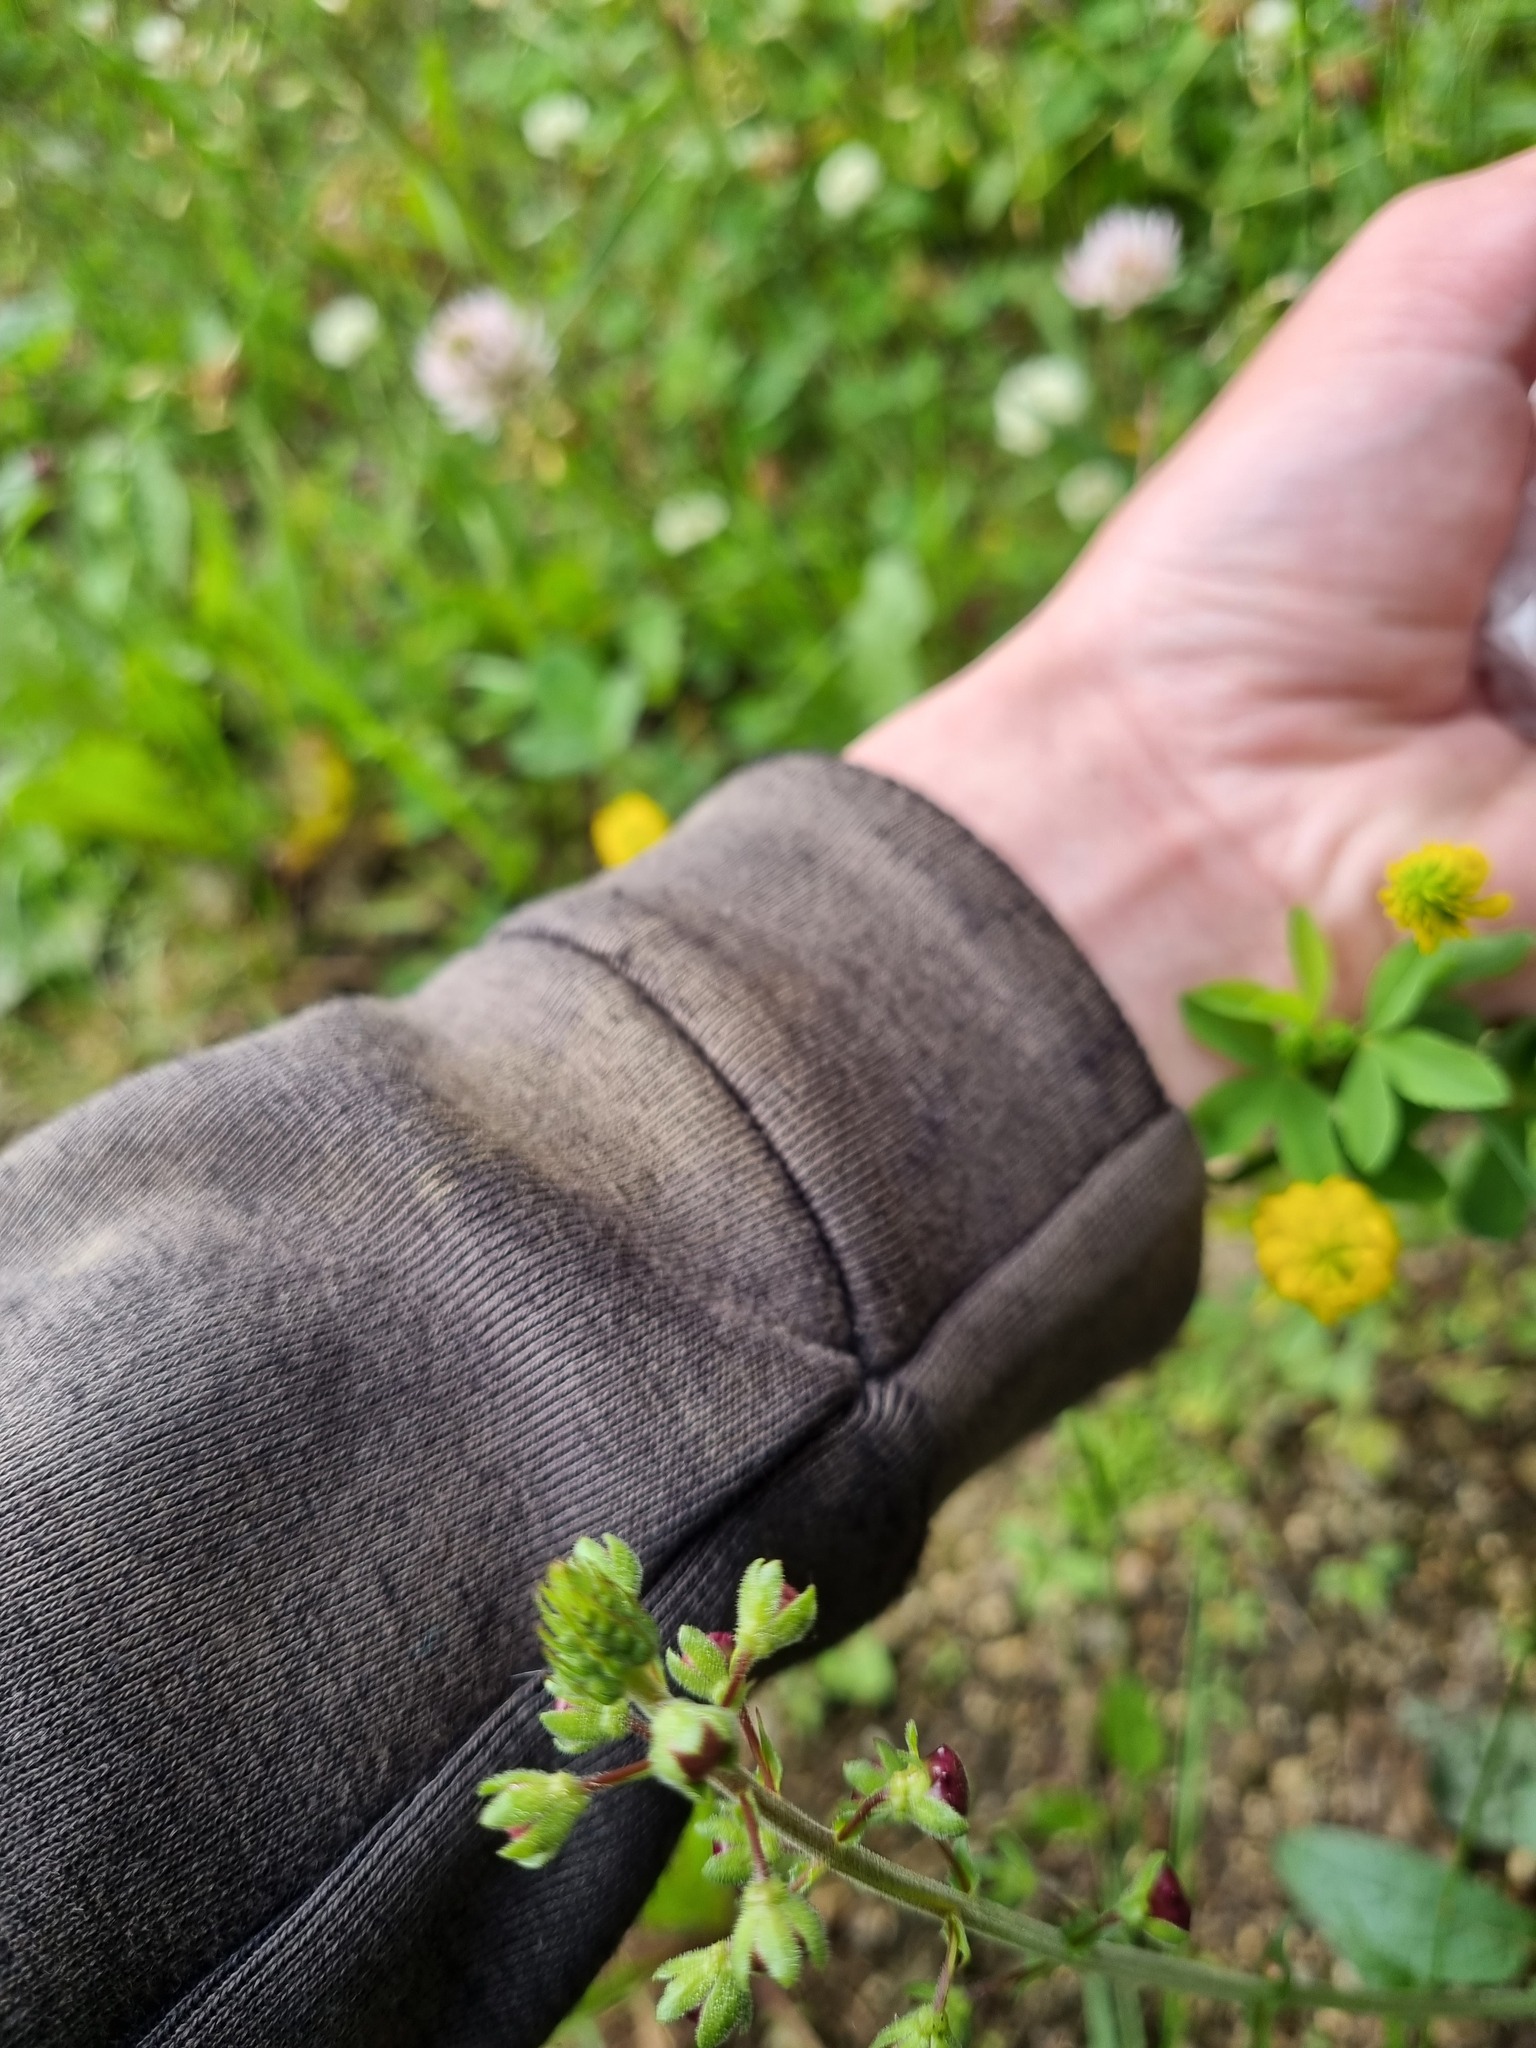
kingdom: Plantae
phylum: Tracheophyta
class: Magnoliopsida
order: Lamiales
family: Scrophulariaceae
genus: Verbascum
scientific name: Verbascum phoeniceum
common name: Purple mullein
